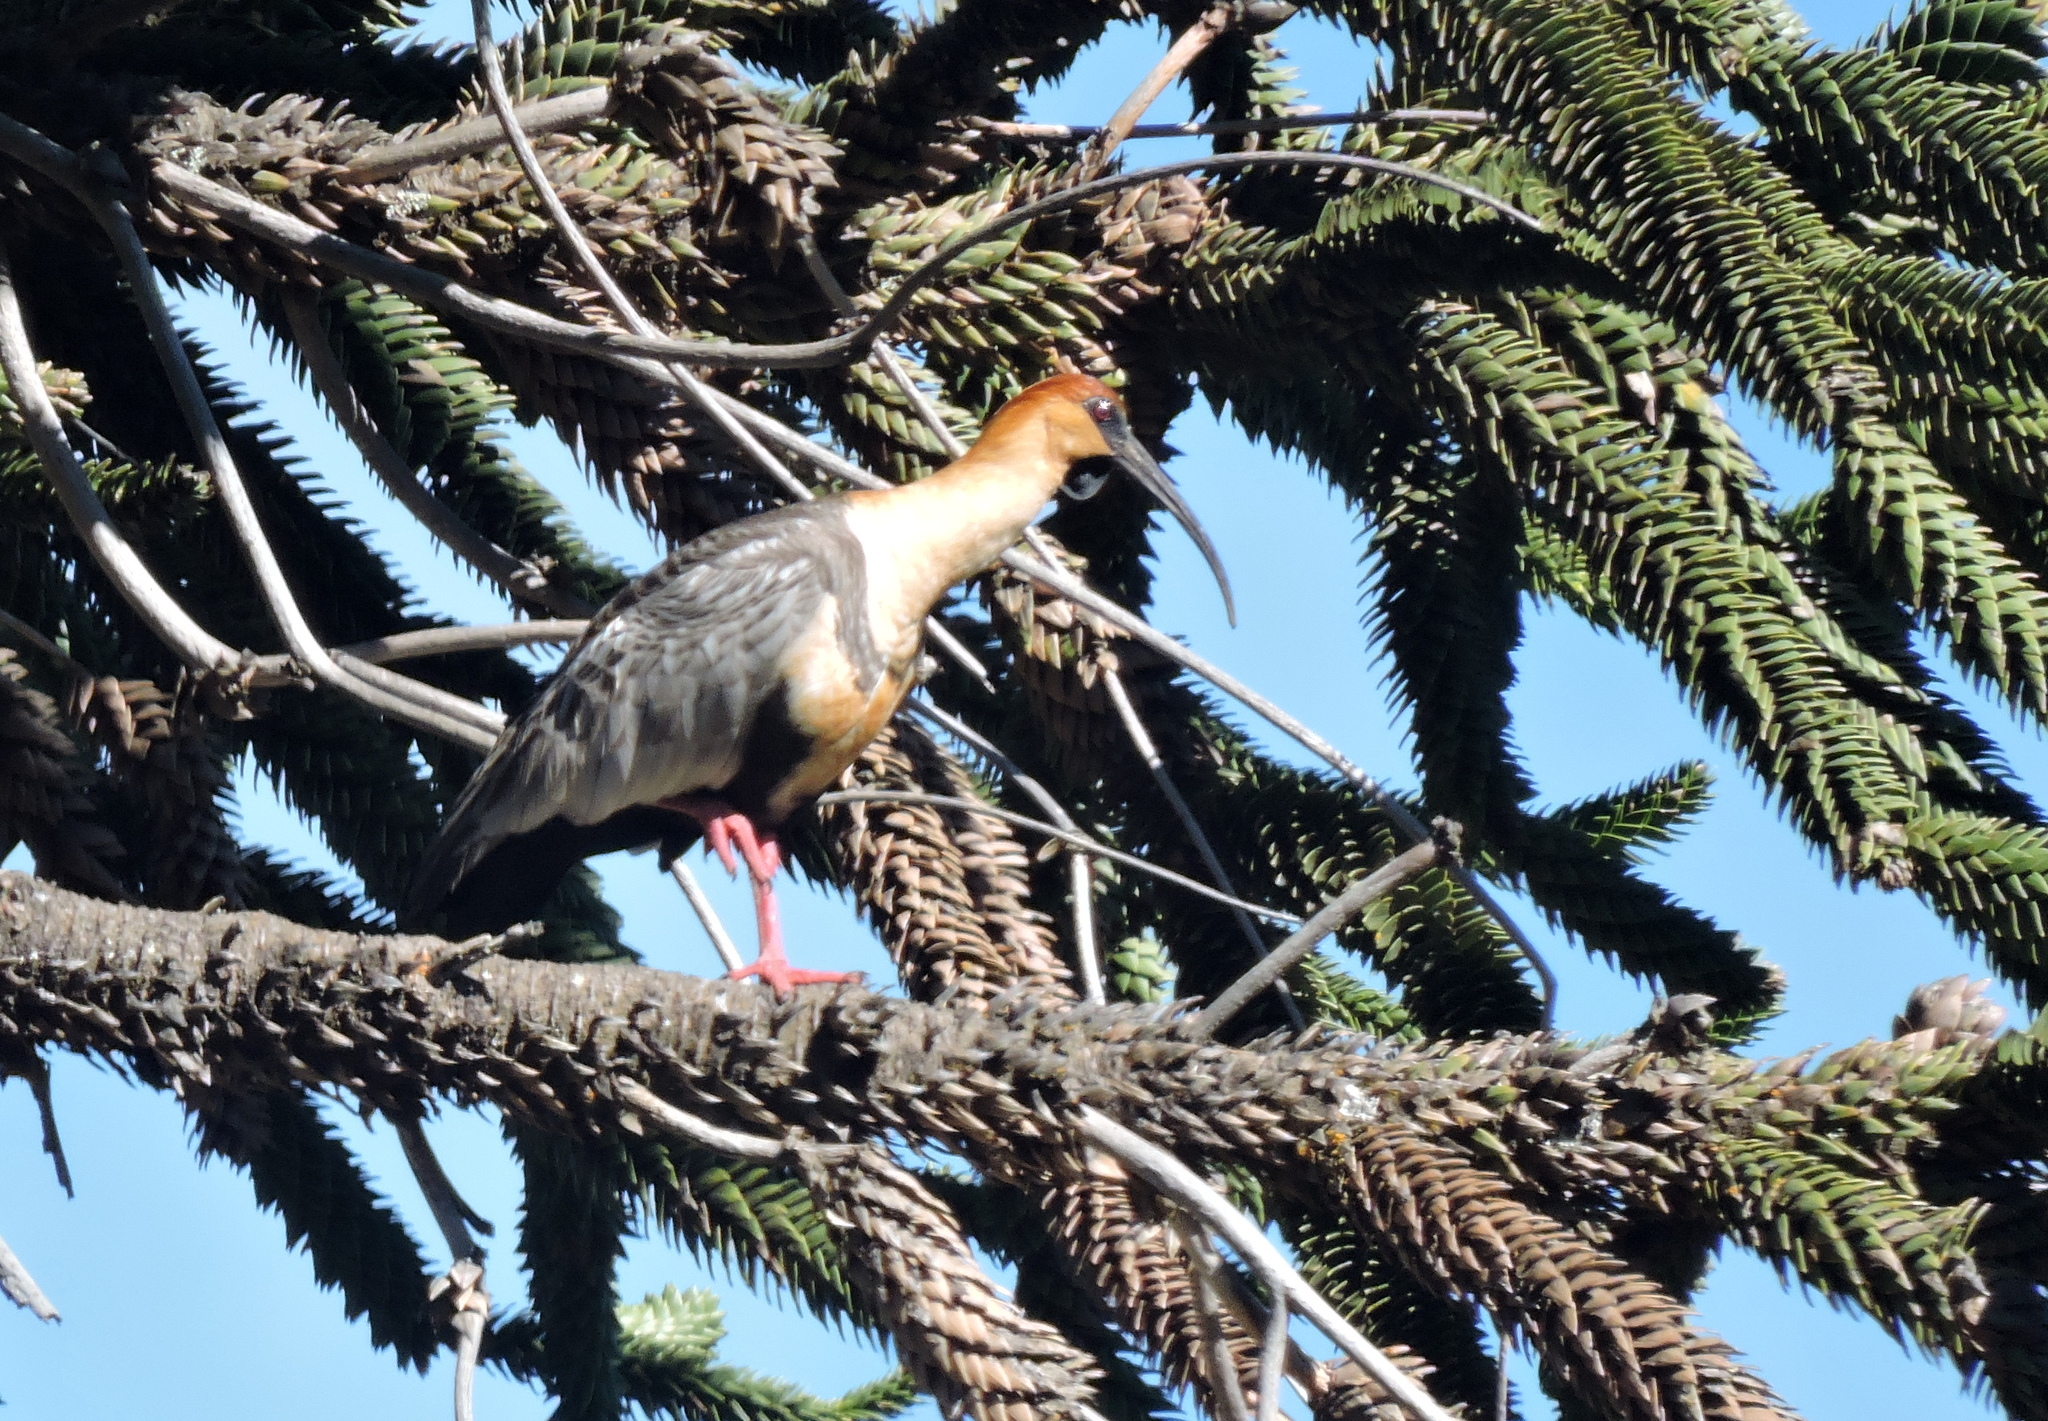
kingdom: Animalia
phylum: Chordata
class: Aves
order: Pelecaniformes
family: Threskiornithidae
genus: Theristicus
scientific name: Theristicus melanopis
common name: Black-faced ibis
